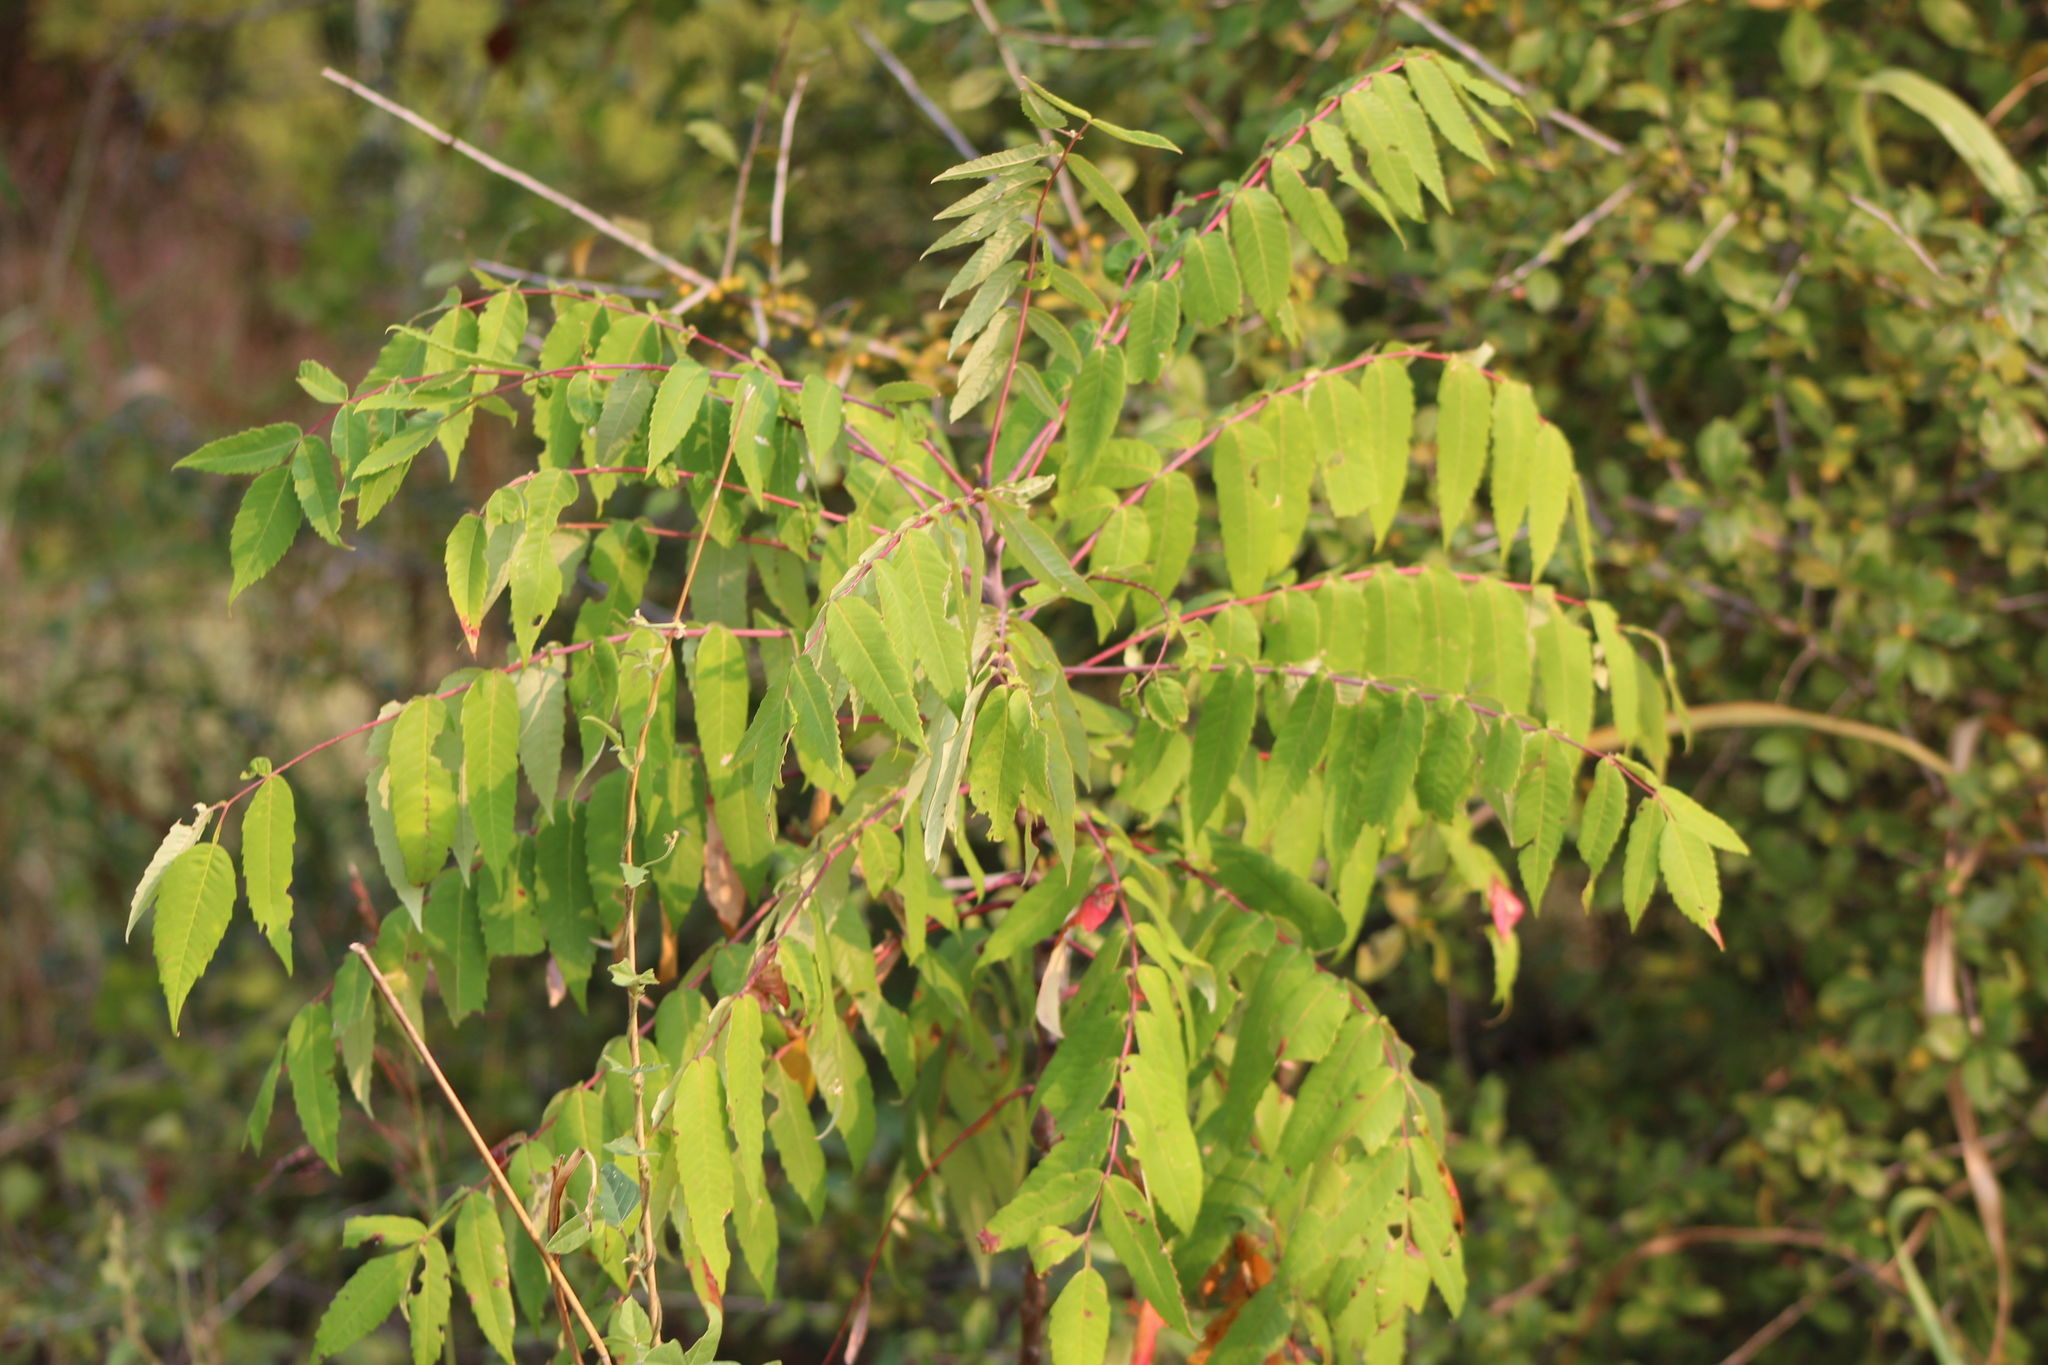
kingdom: Plantae
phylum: Tracheophyta
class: Magnoliopsida
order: Sapindales
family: Anacardiaceae
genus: Rhus
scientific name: Rhus glabra
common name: Scarlet sumac
